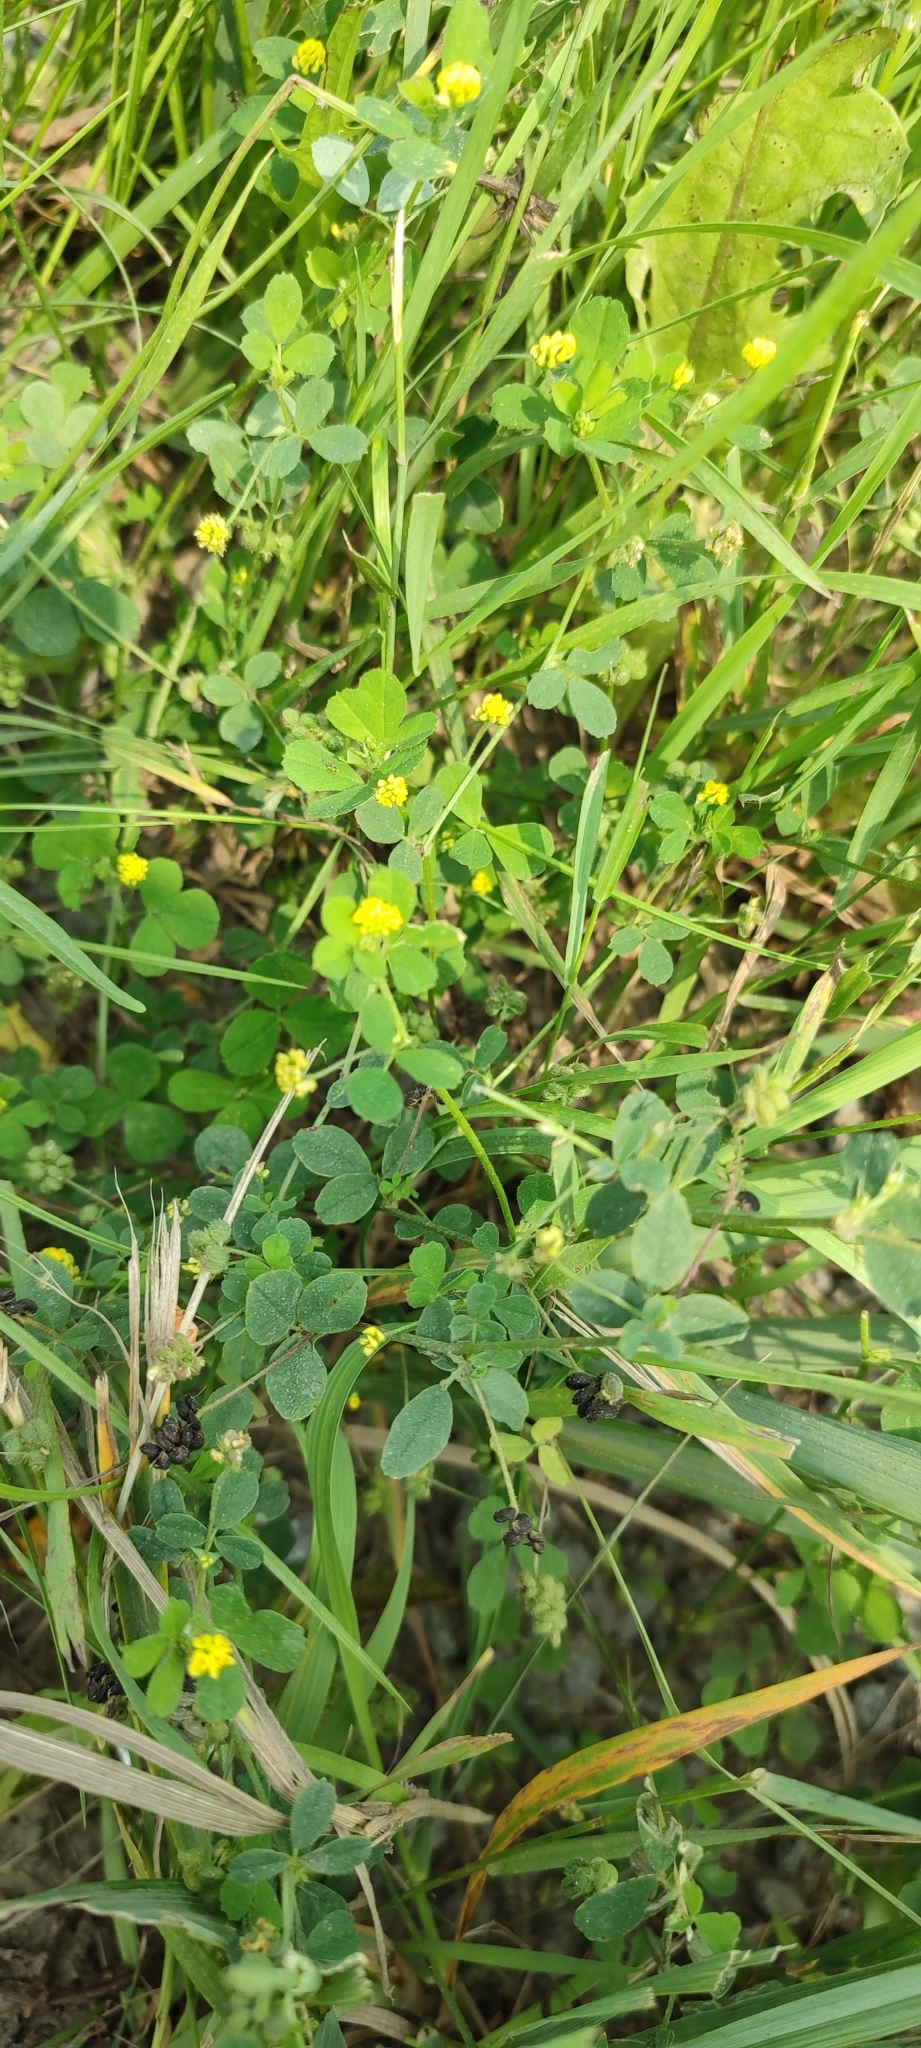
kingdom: Plantae
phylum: Tracheophyta
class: Magnoliopsida
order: Fabales
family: Fabaceae
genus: Medicago
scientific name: Medicago lupulina
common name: Black medick
